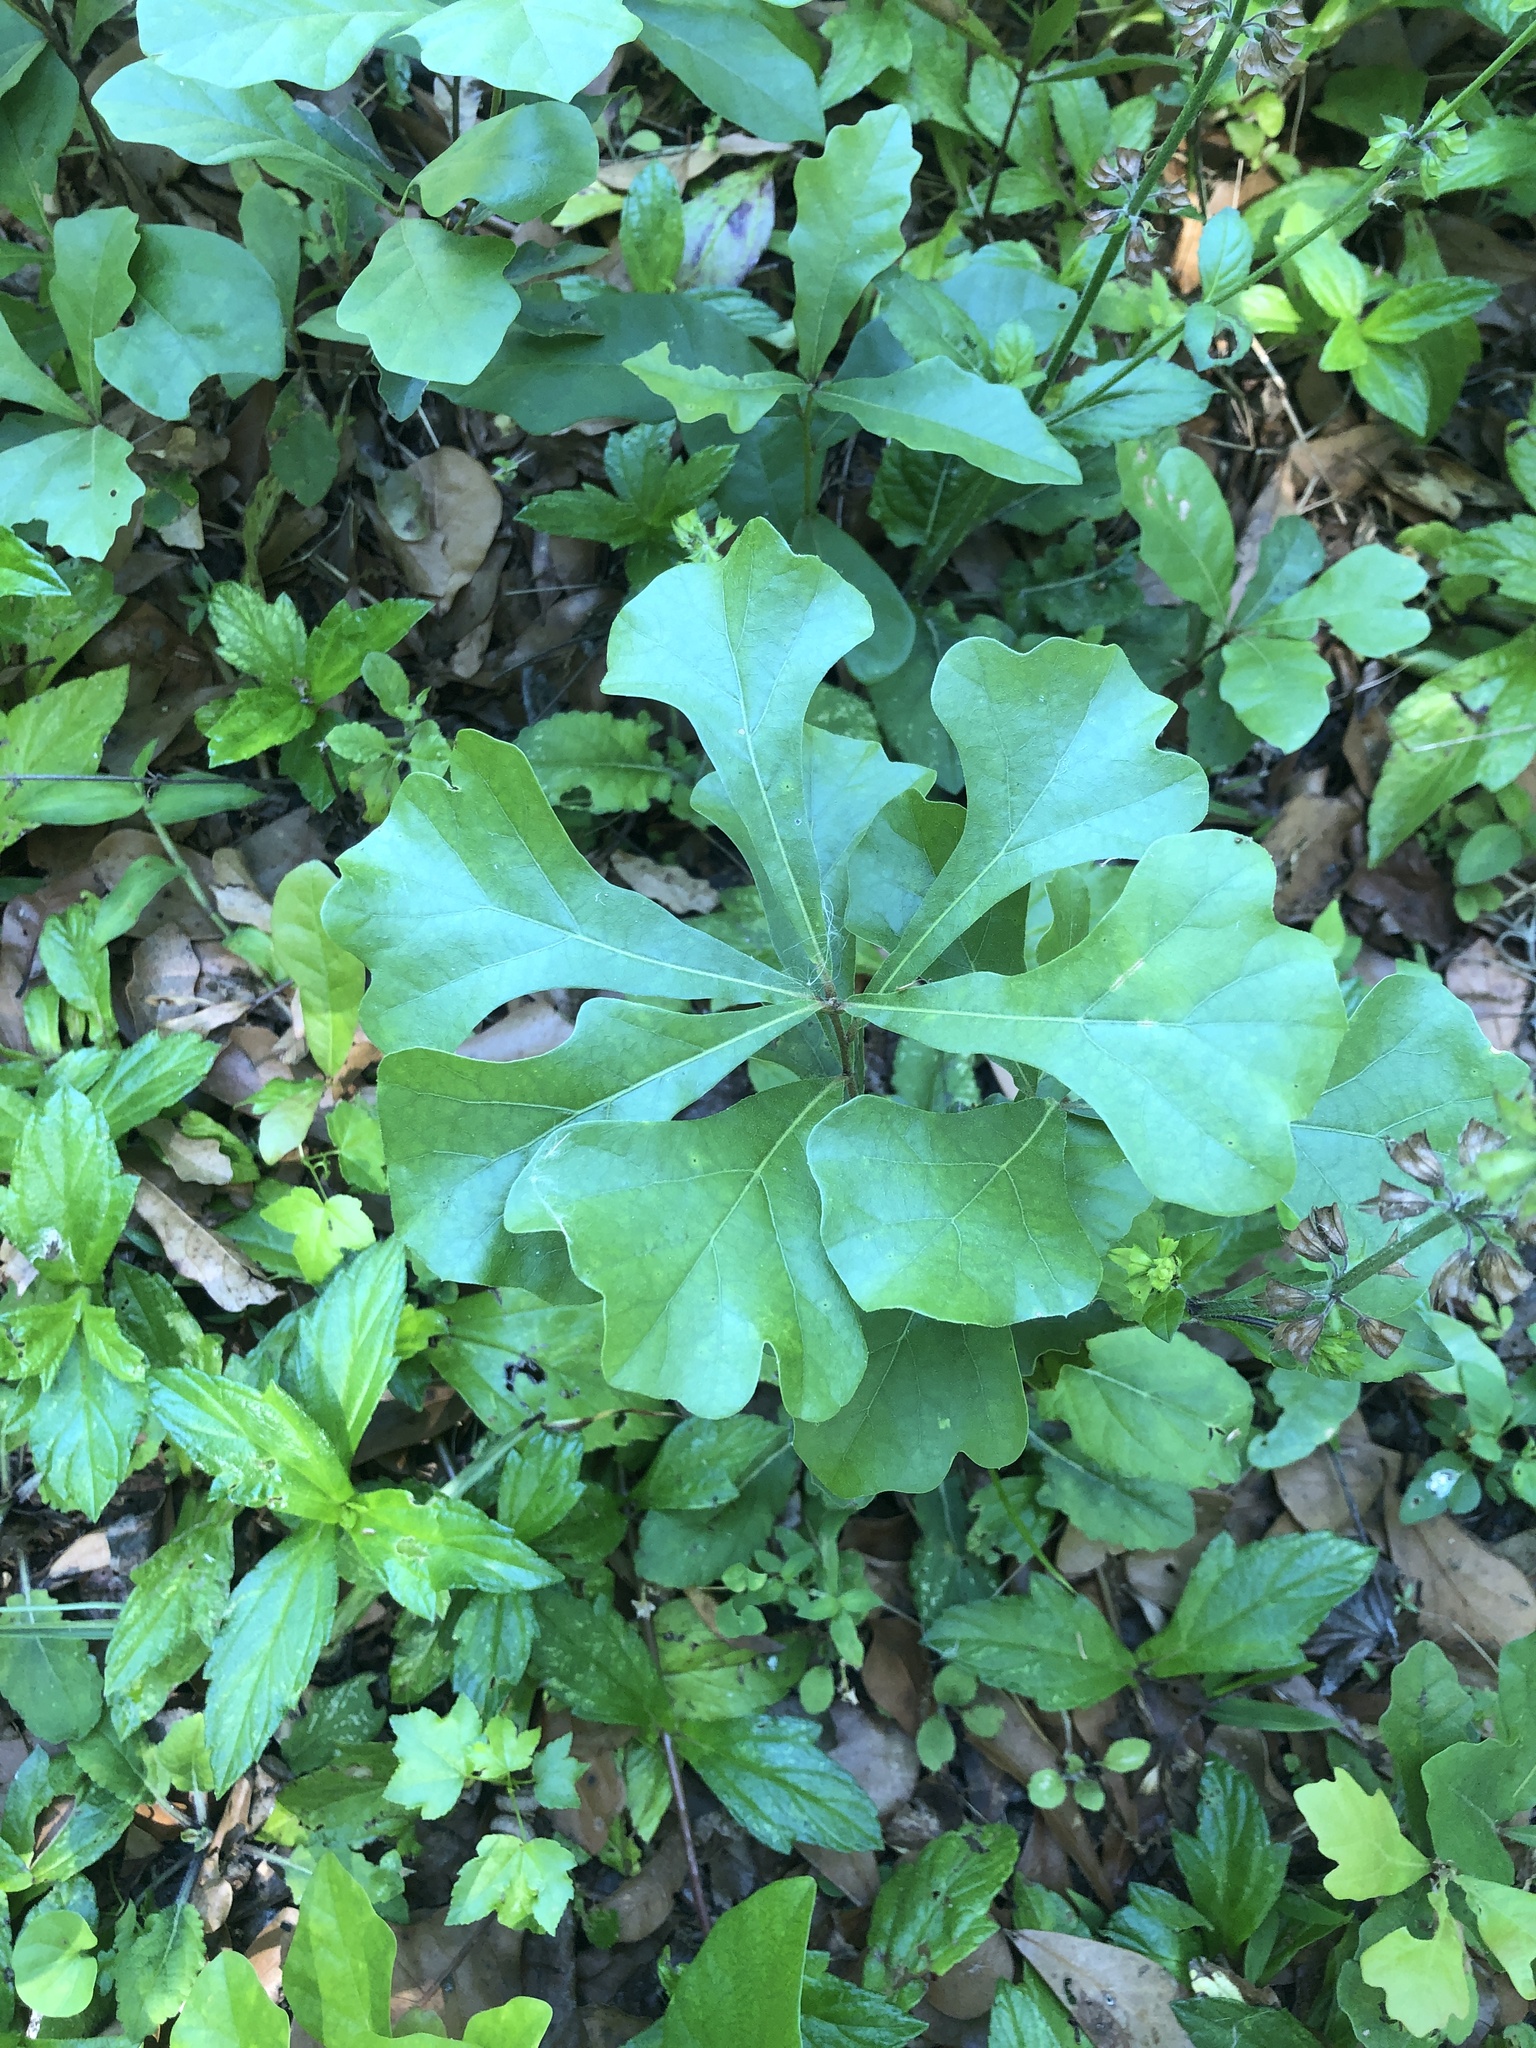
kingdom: Plantae
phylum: Tracheophyta
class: Magnoliopsida
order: Fagales
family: Fagaceae
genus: Quercus
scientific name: Quercus nigra
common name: Water oak
